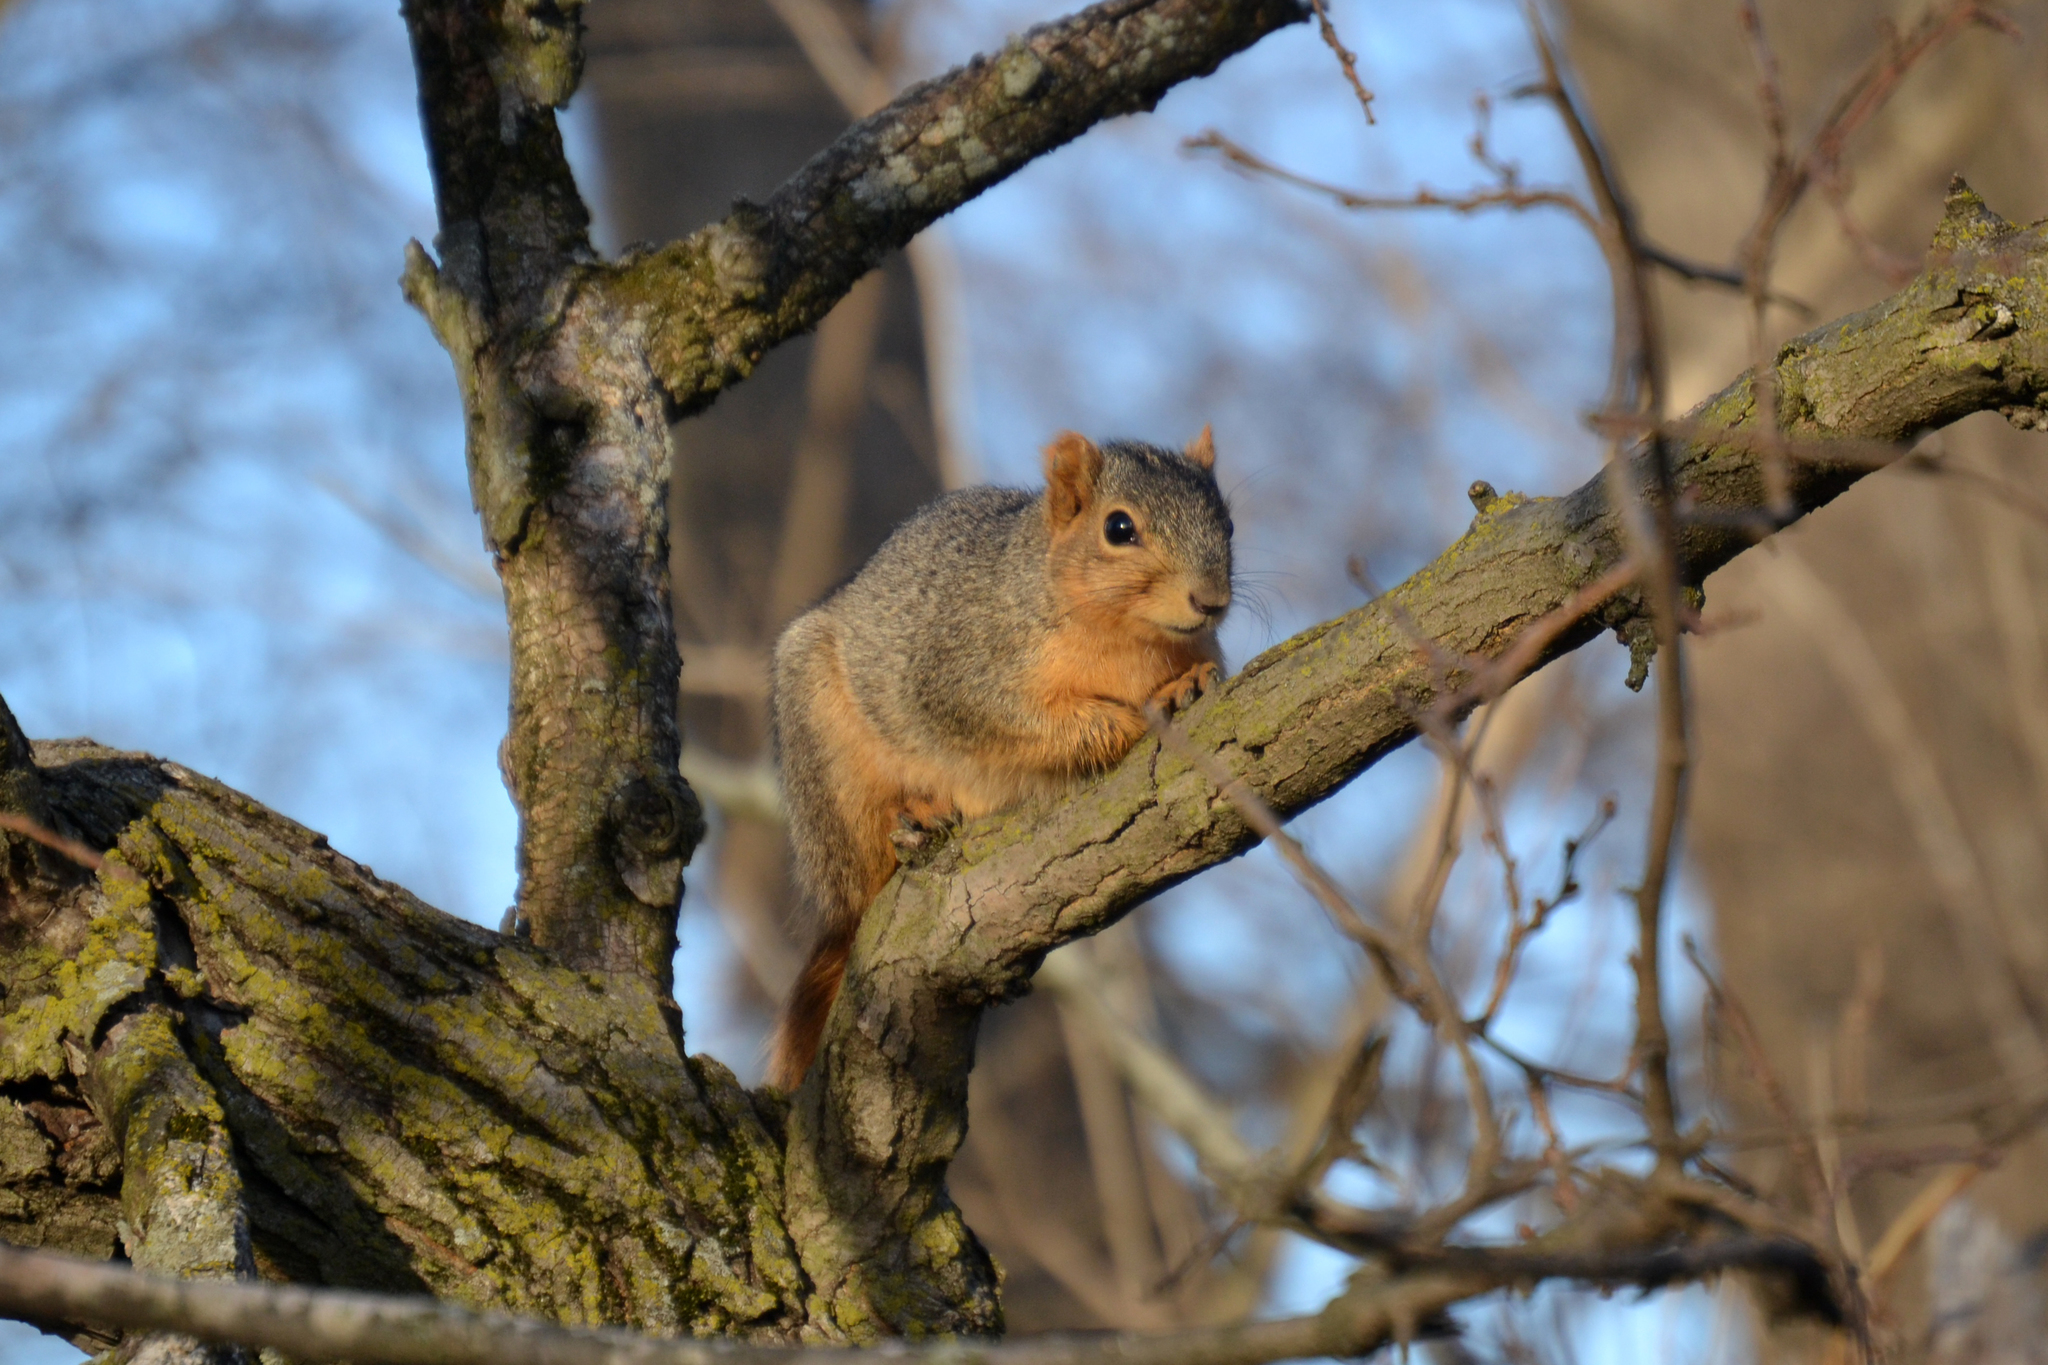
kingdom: Animalia
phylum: Chordata
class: Mammalia
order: Rodentia
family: Sciuridae
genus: Sciurus
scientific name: Sciurus niger
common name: Fox squirrel
